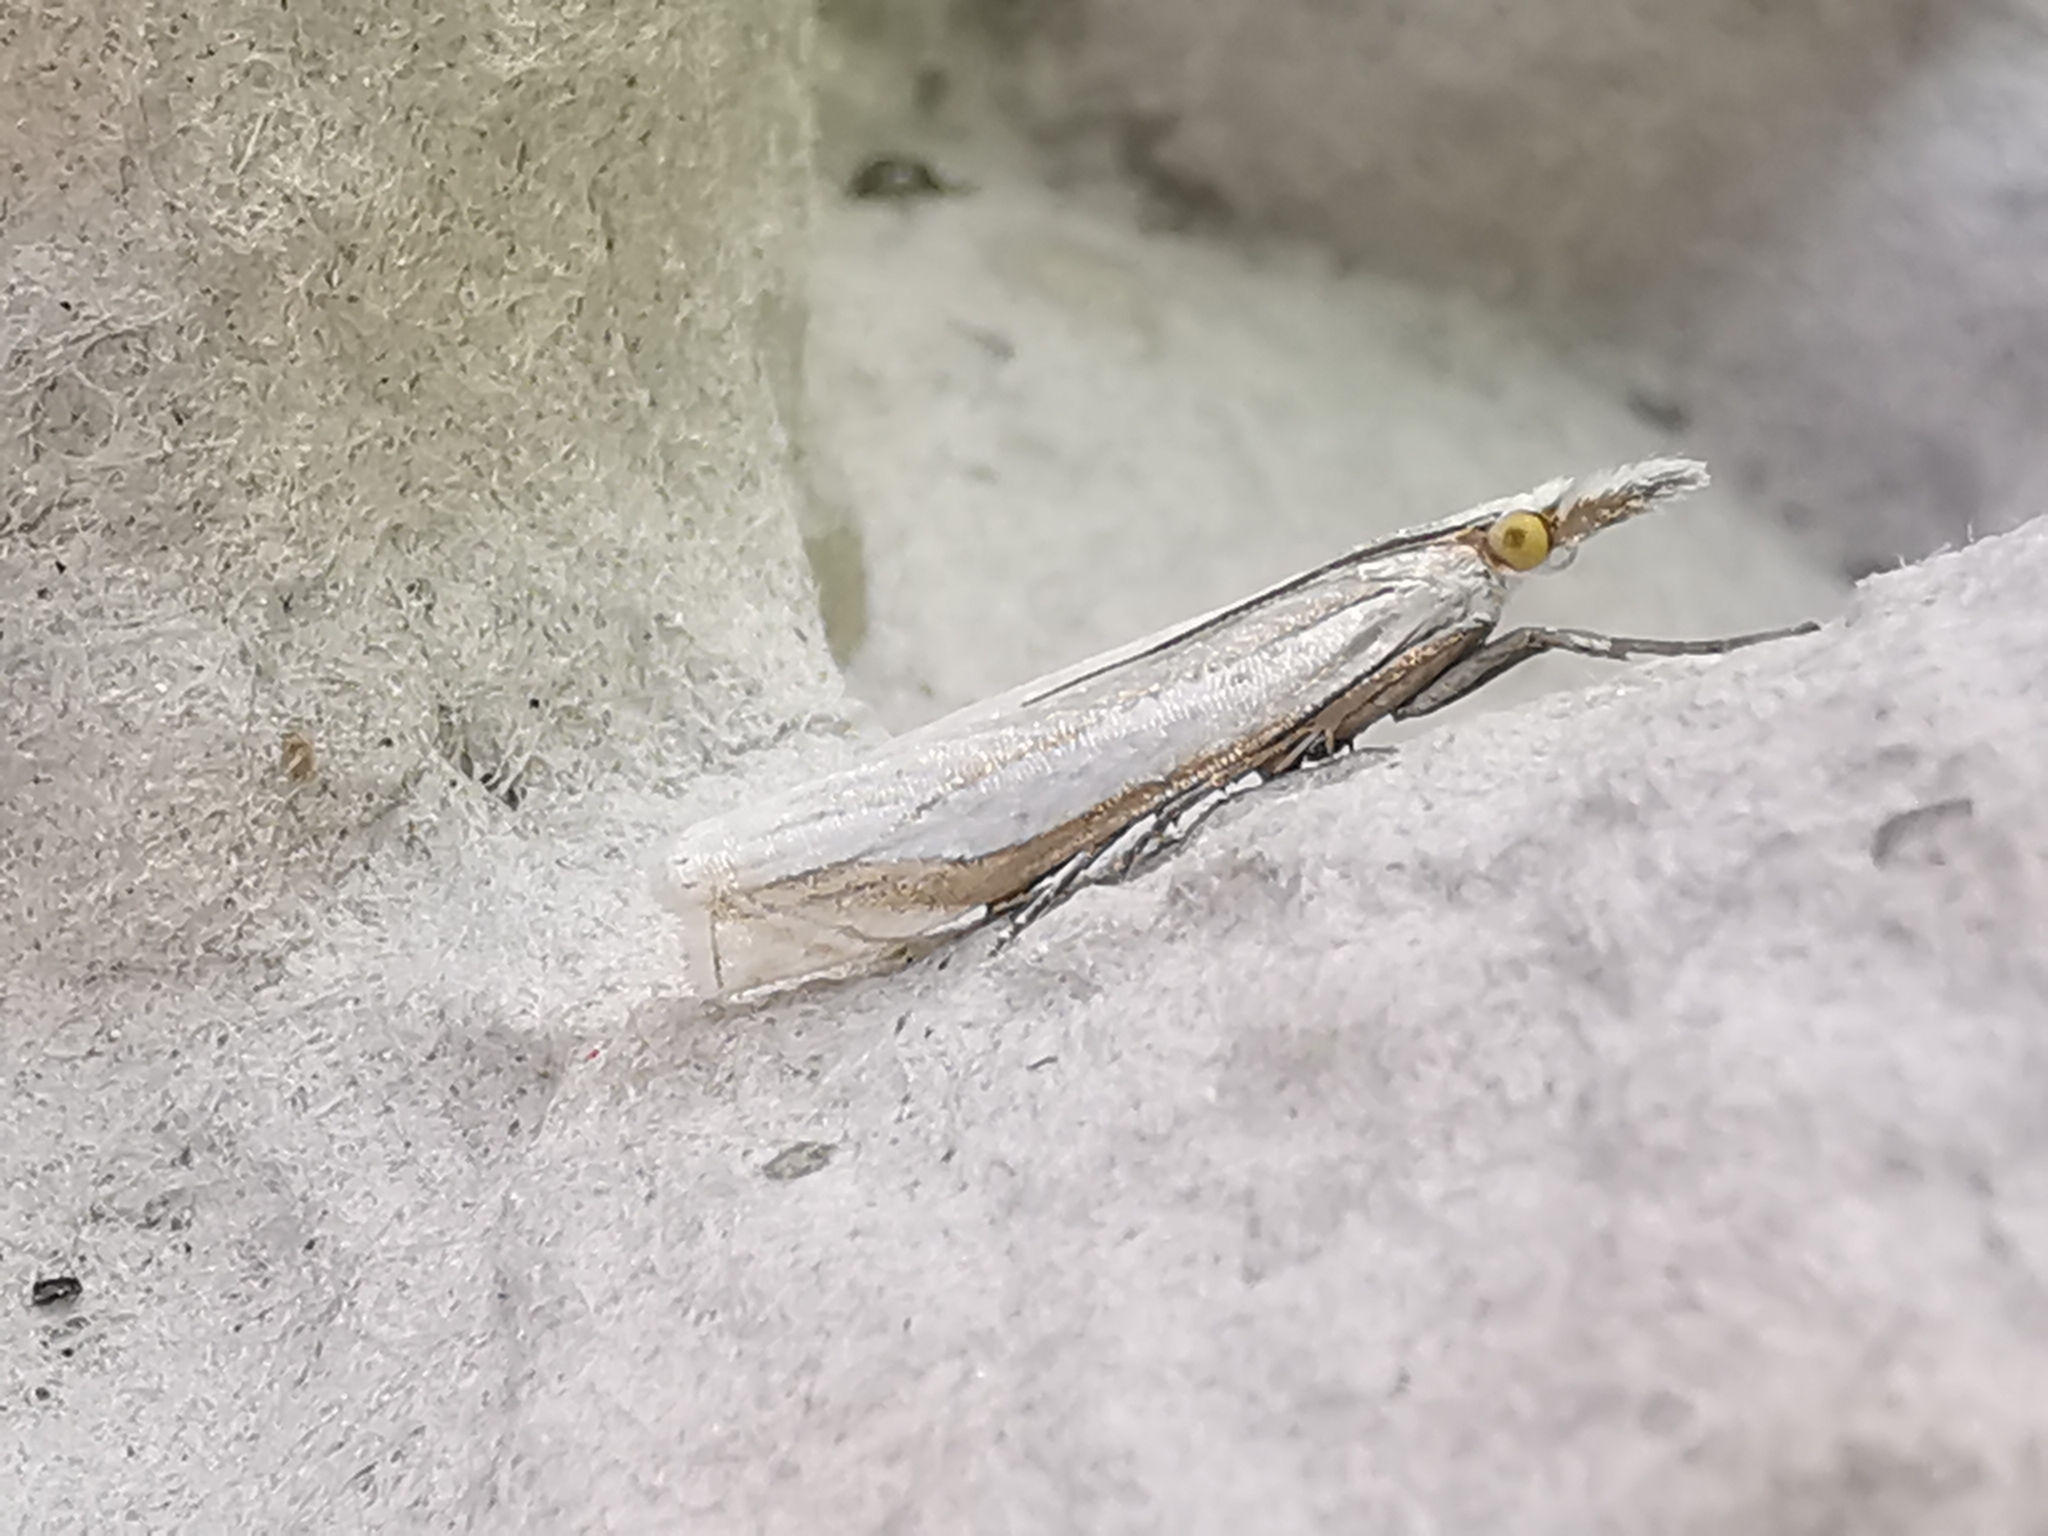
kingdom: Animalia
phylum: Arthropoda
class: Insecta
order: Lepidoptera
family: Crambidae
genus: Crambus
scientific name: Crambus pascuella
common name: Inlaid grass-veneer
